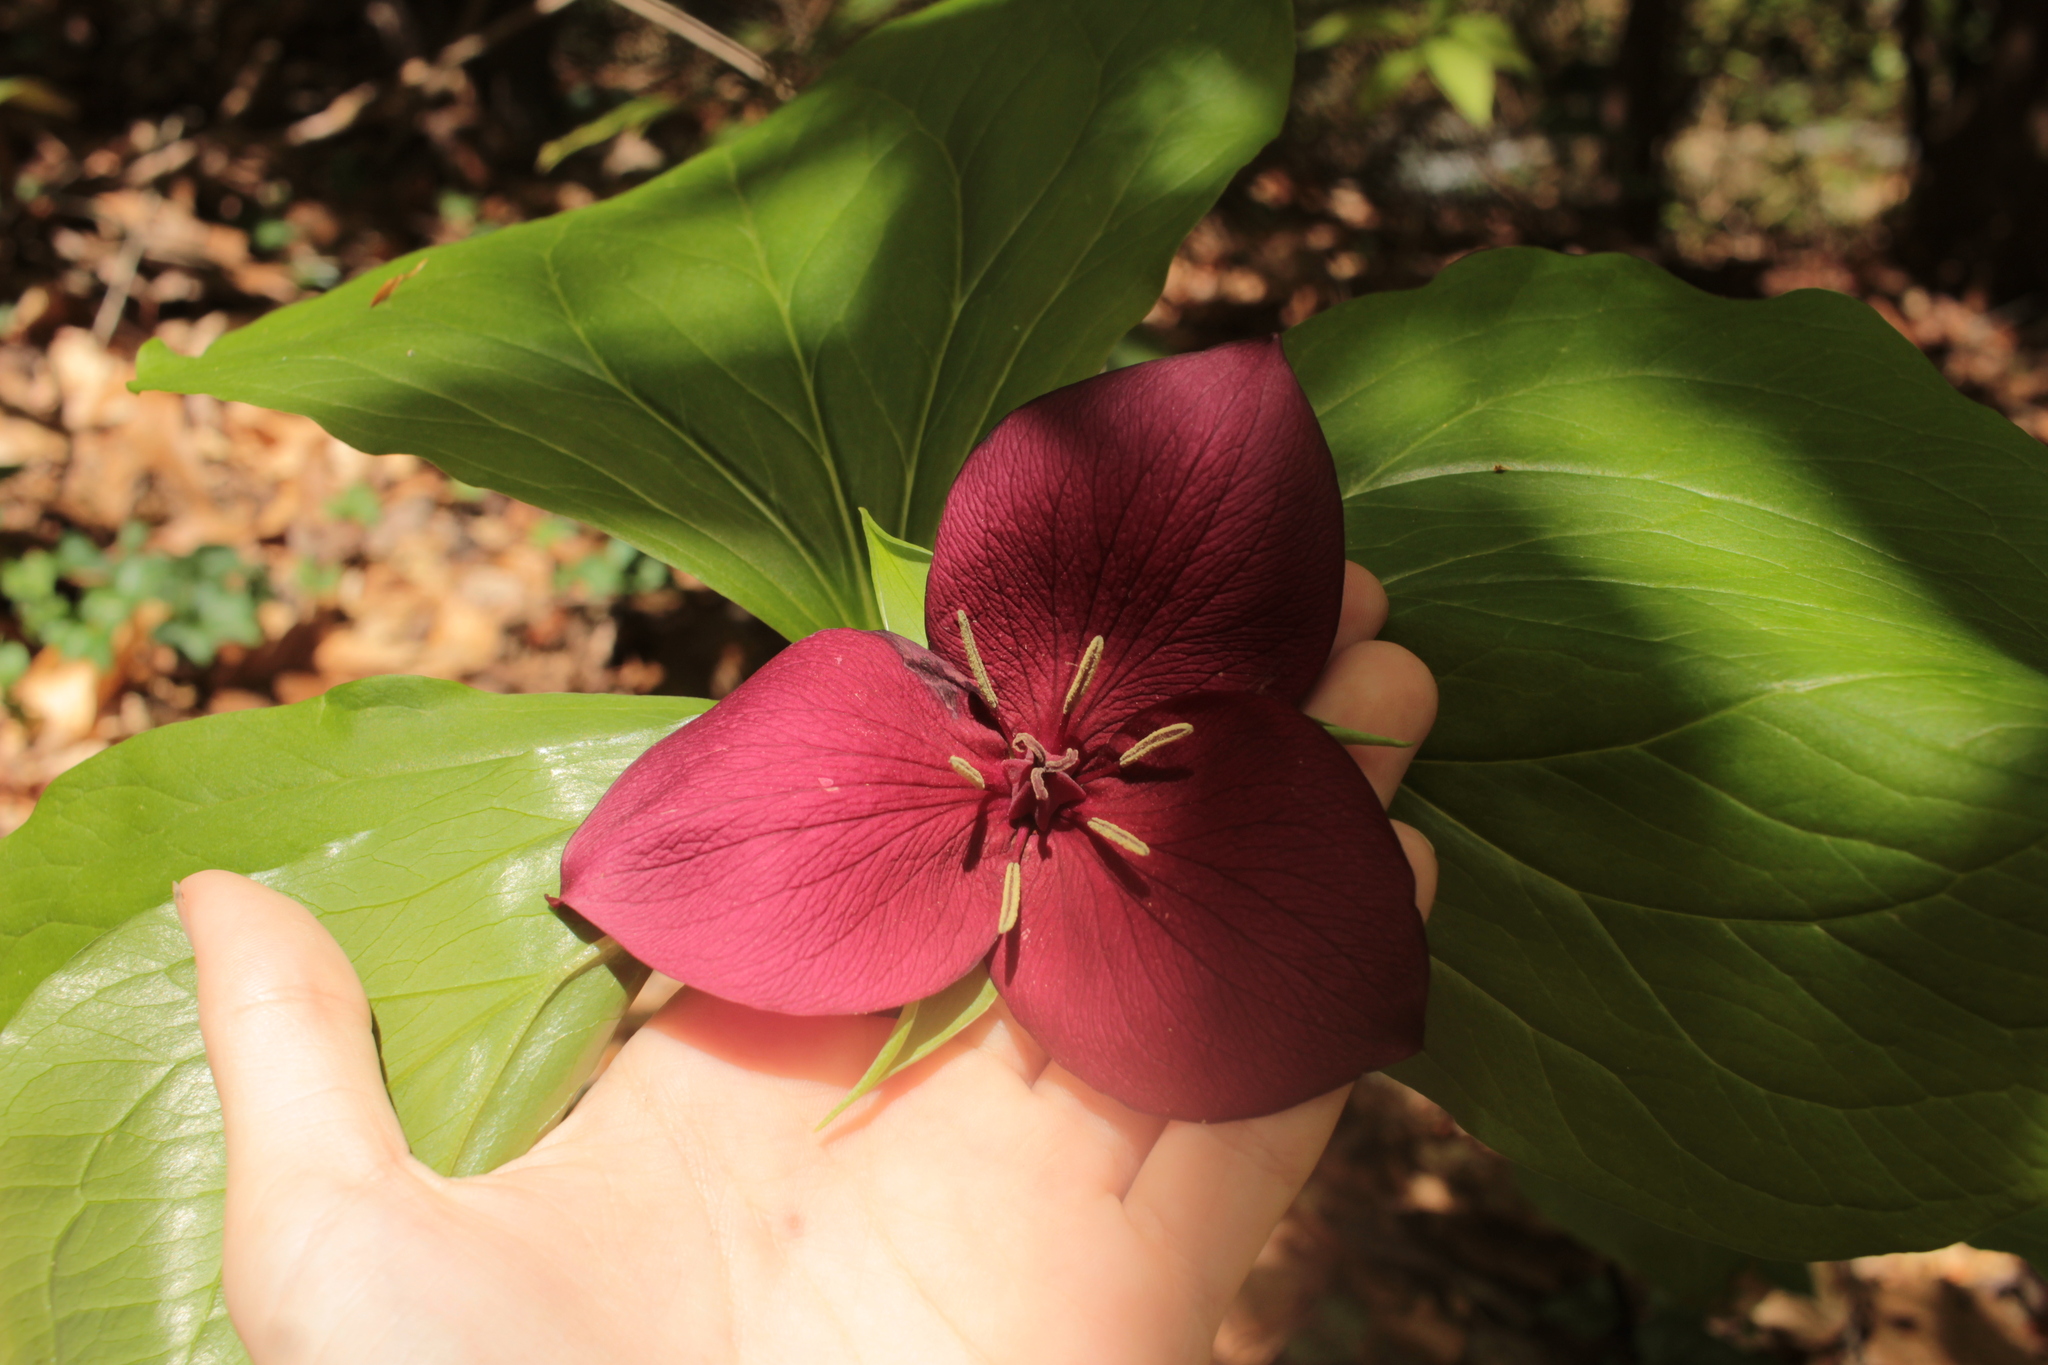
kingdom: Plantae
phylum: Tracheophyta
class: Liliopsida
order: Liliales
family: Melanthiaceae
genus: Trillium
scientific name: Trillium vaseyi
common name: Sweet trillium
